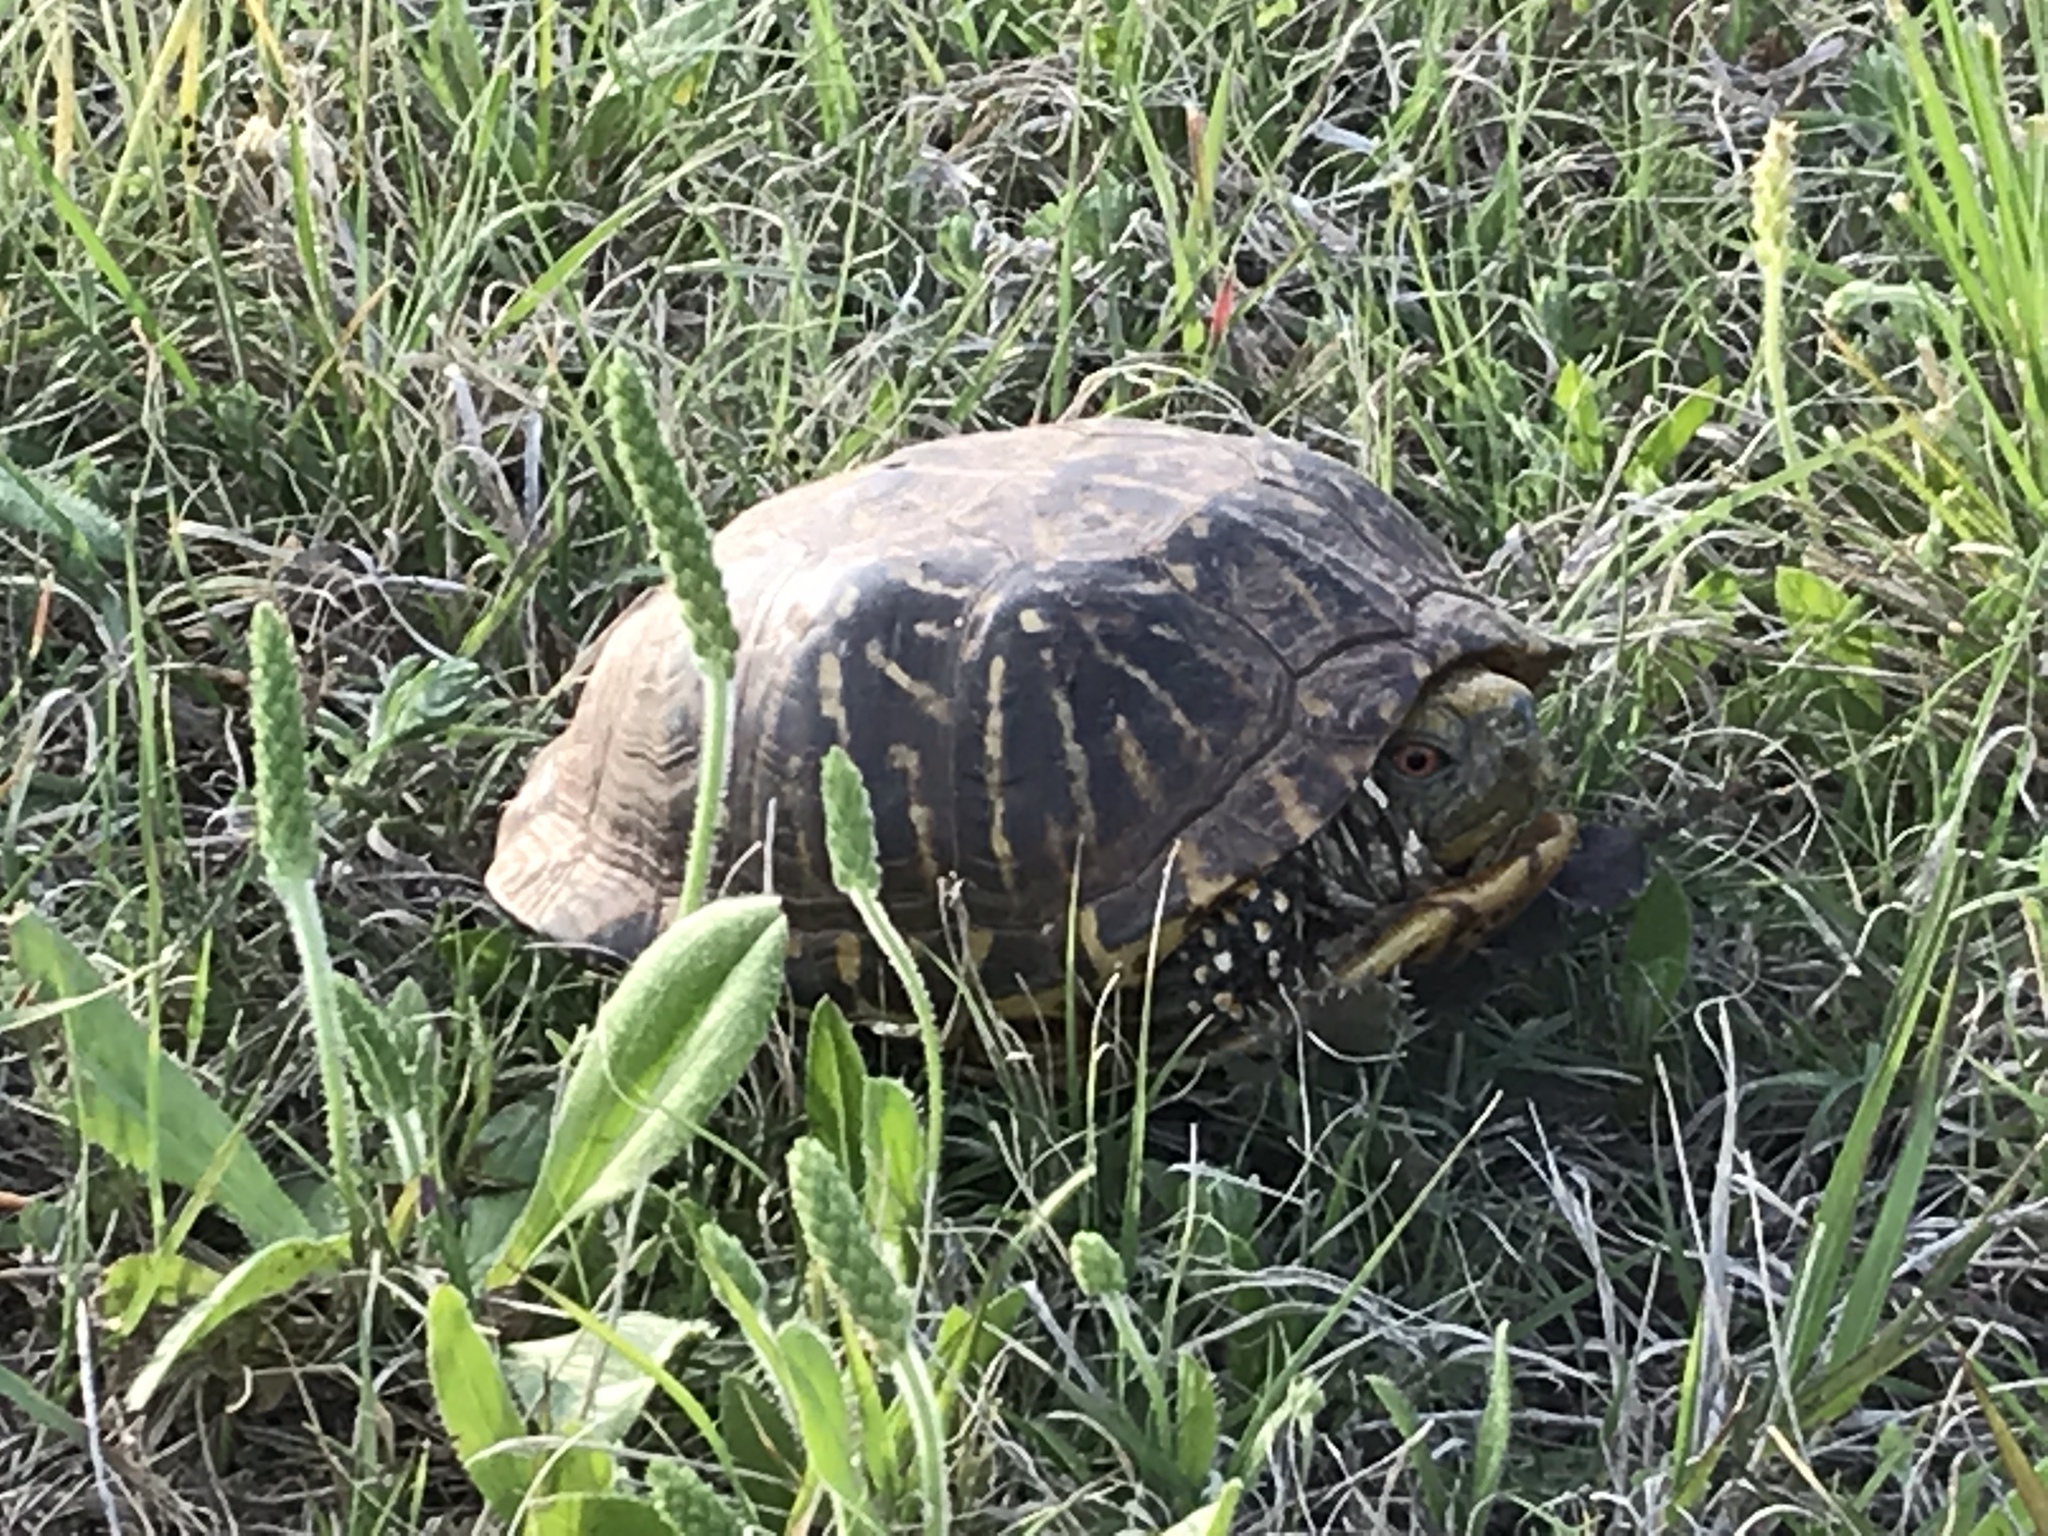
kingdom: Animalia
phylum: Chordata
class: Testudines
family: Emydidae
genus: Terrapene
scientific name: Terrapene ornata
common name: Western box turtle
